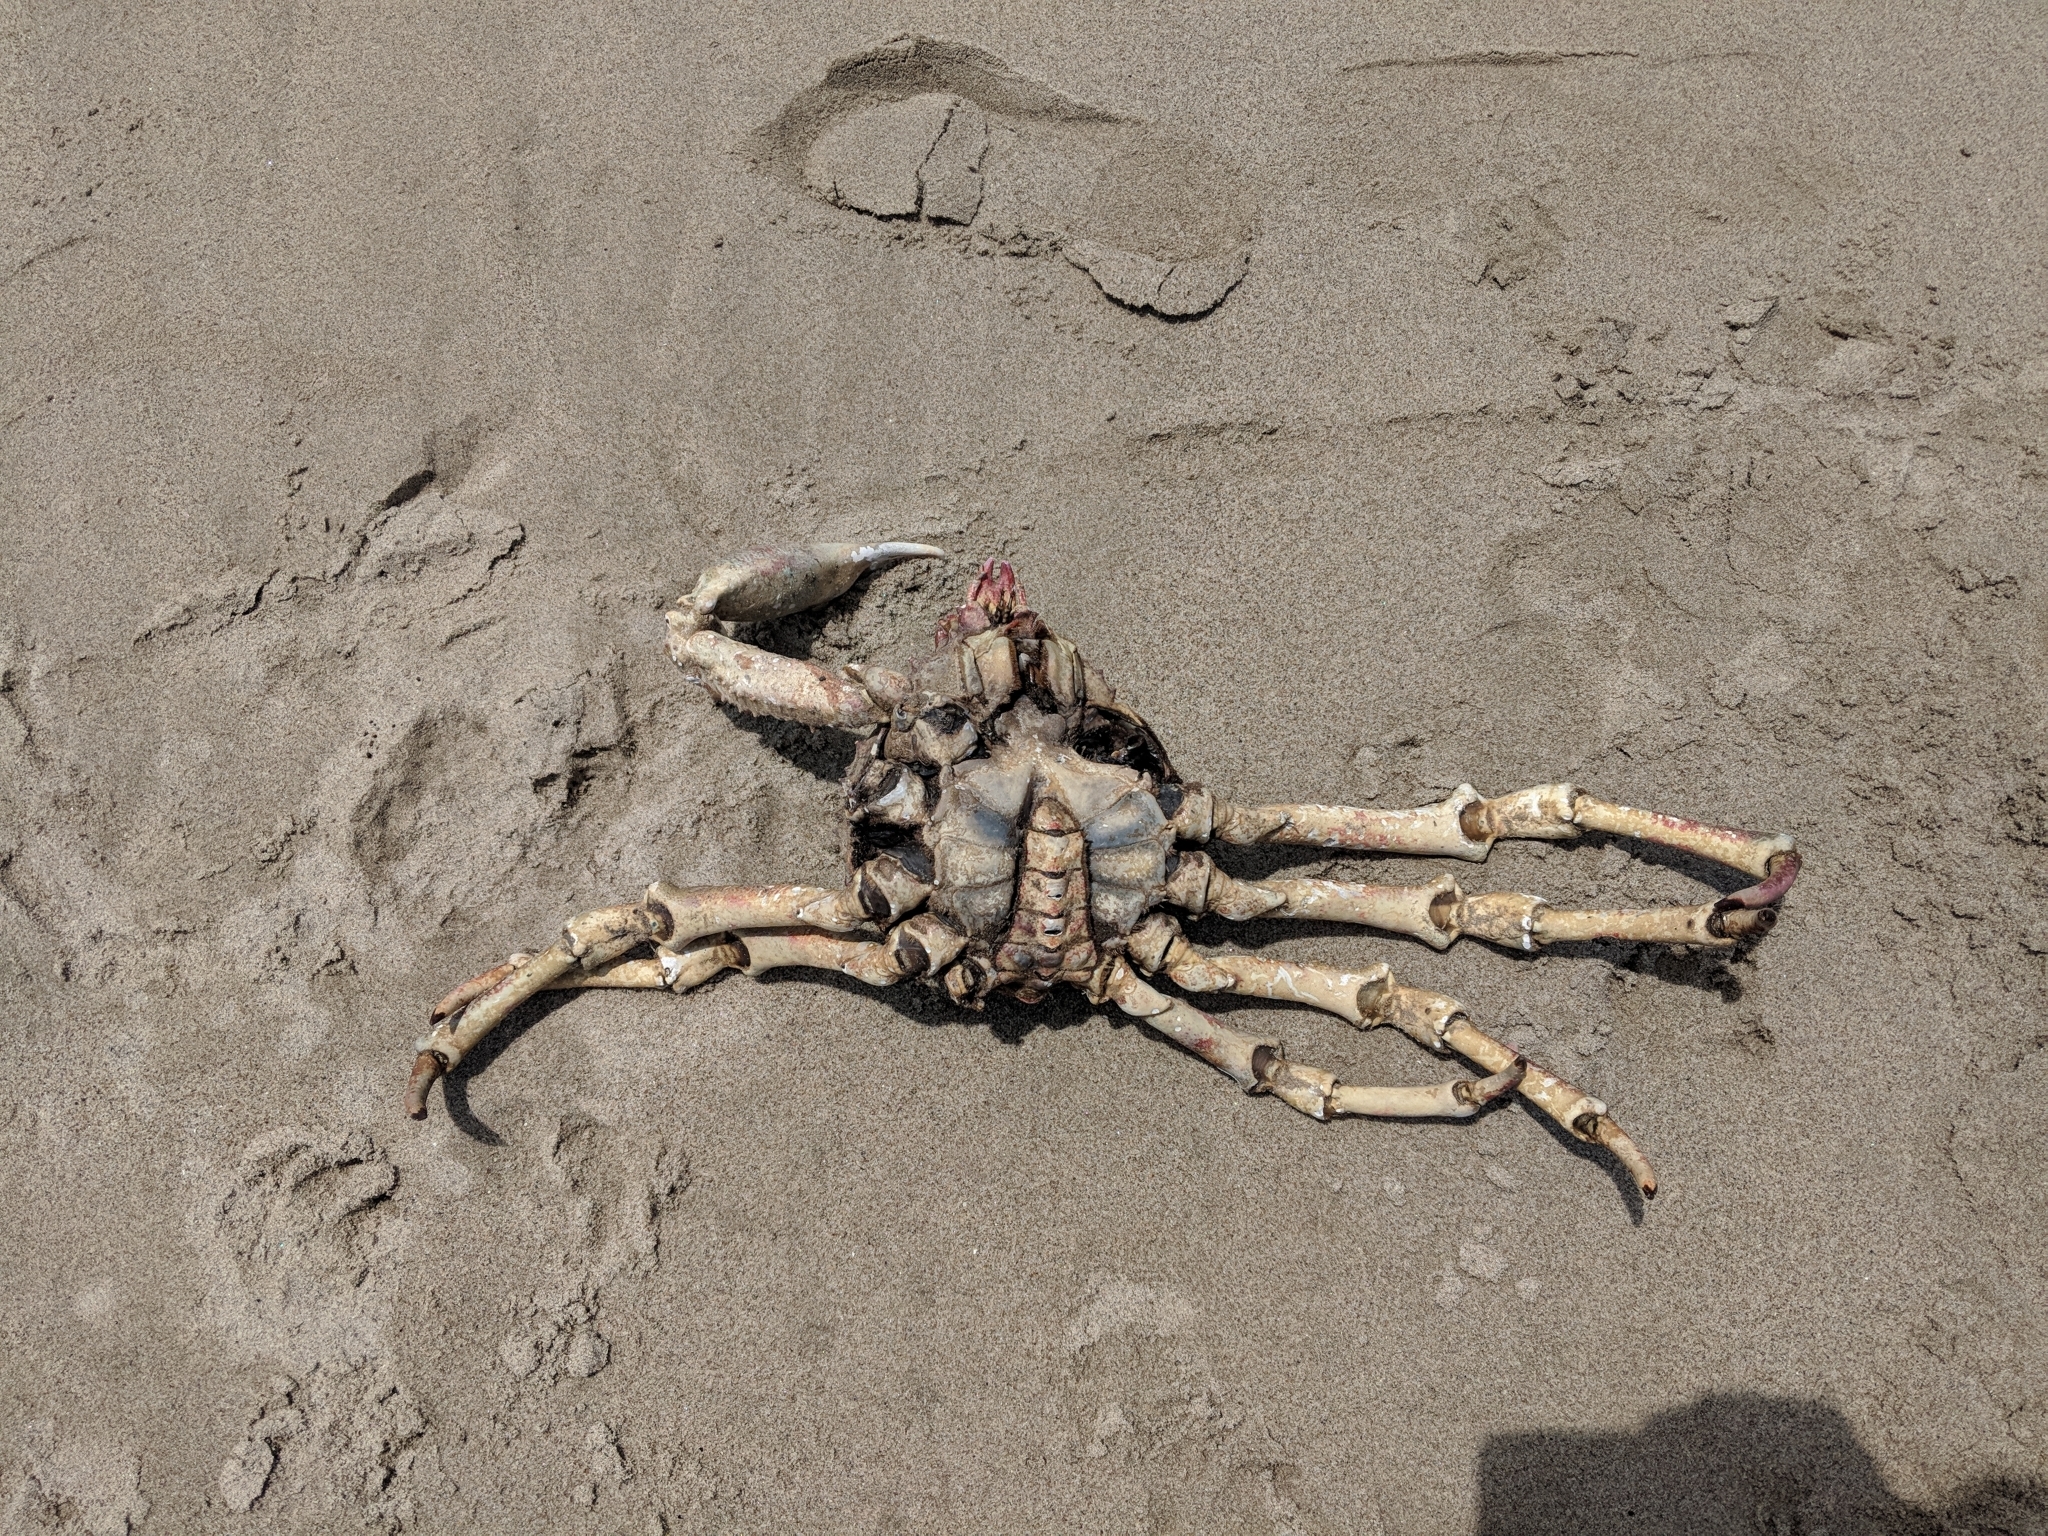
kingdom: Animalia
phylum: Arthropoda
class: Malacostraca
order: Decapoda
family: Epialtidae
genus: Loxorhynchus
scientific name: Loxorhynchus grandis
